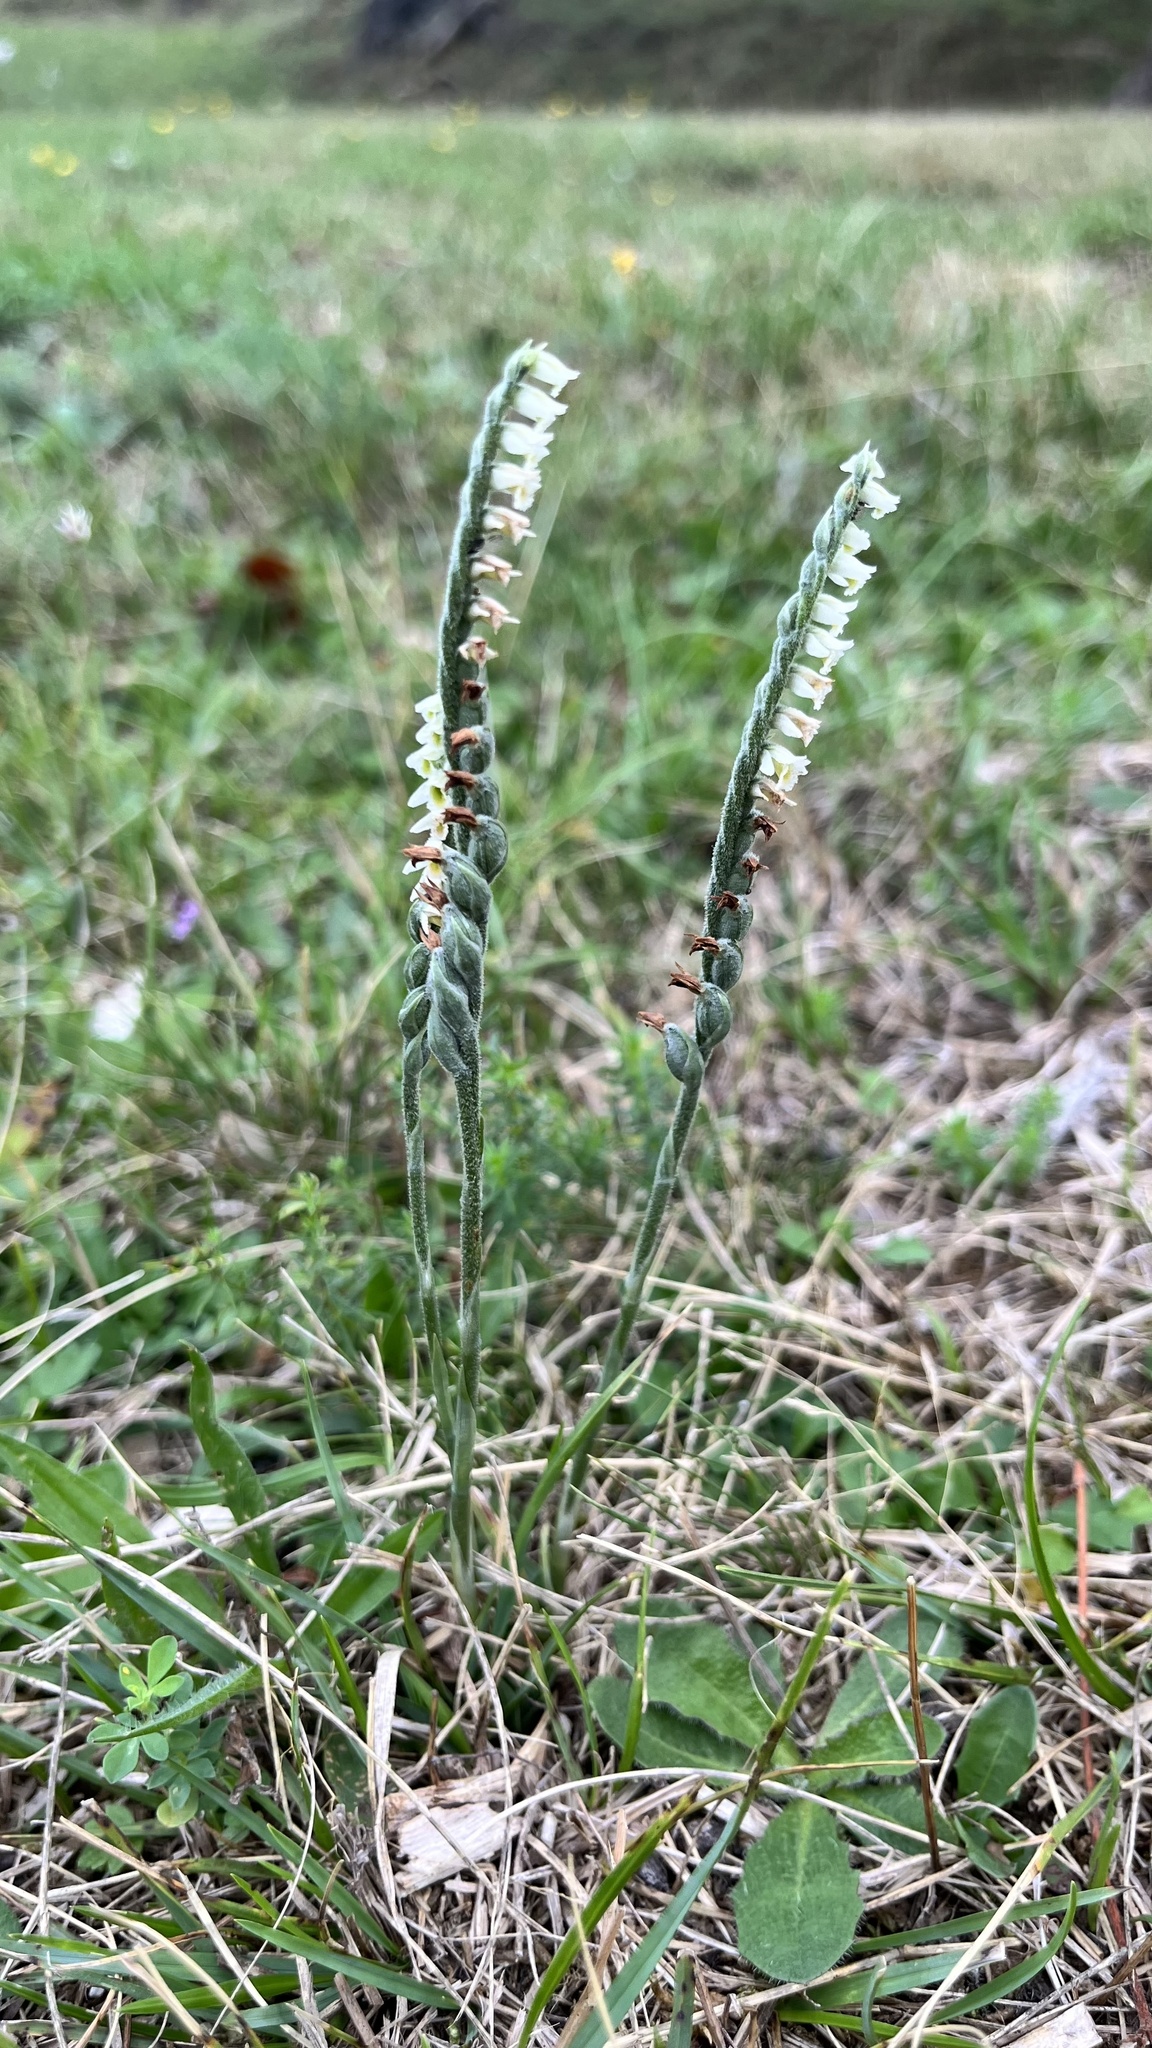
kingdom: Plantae
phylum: Tracheophyta
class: Liliopsida
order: Asparagales
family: Orchidaceae
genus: Spiranthes
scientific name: Spiranthes spiralis
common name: Autumn lady's-tresses
